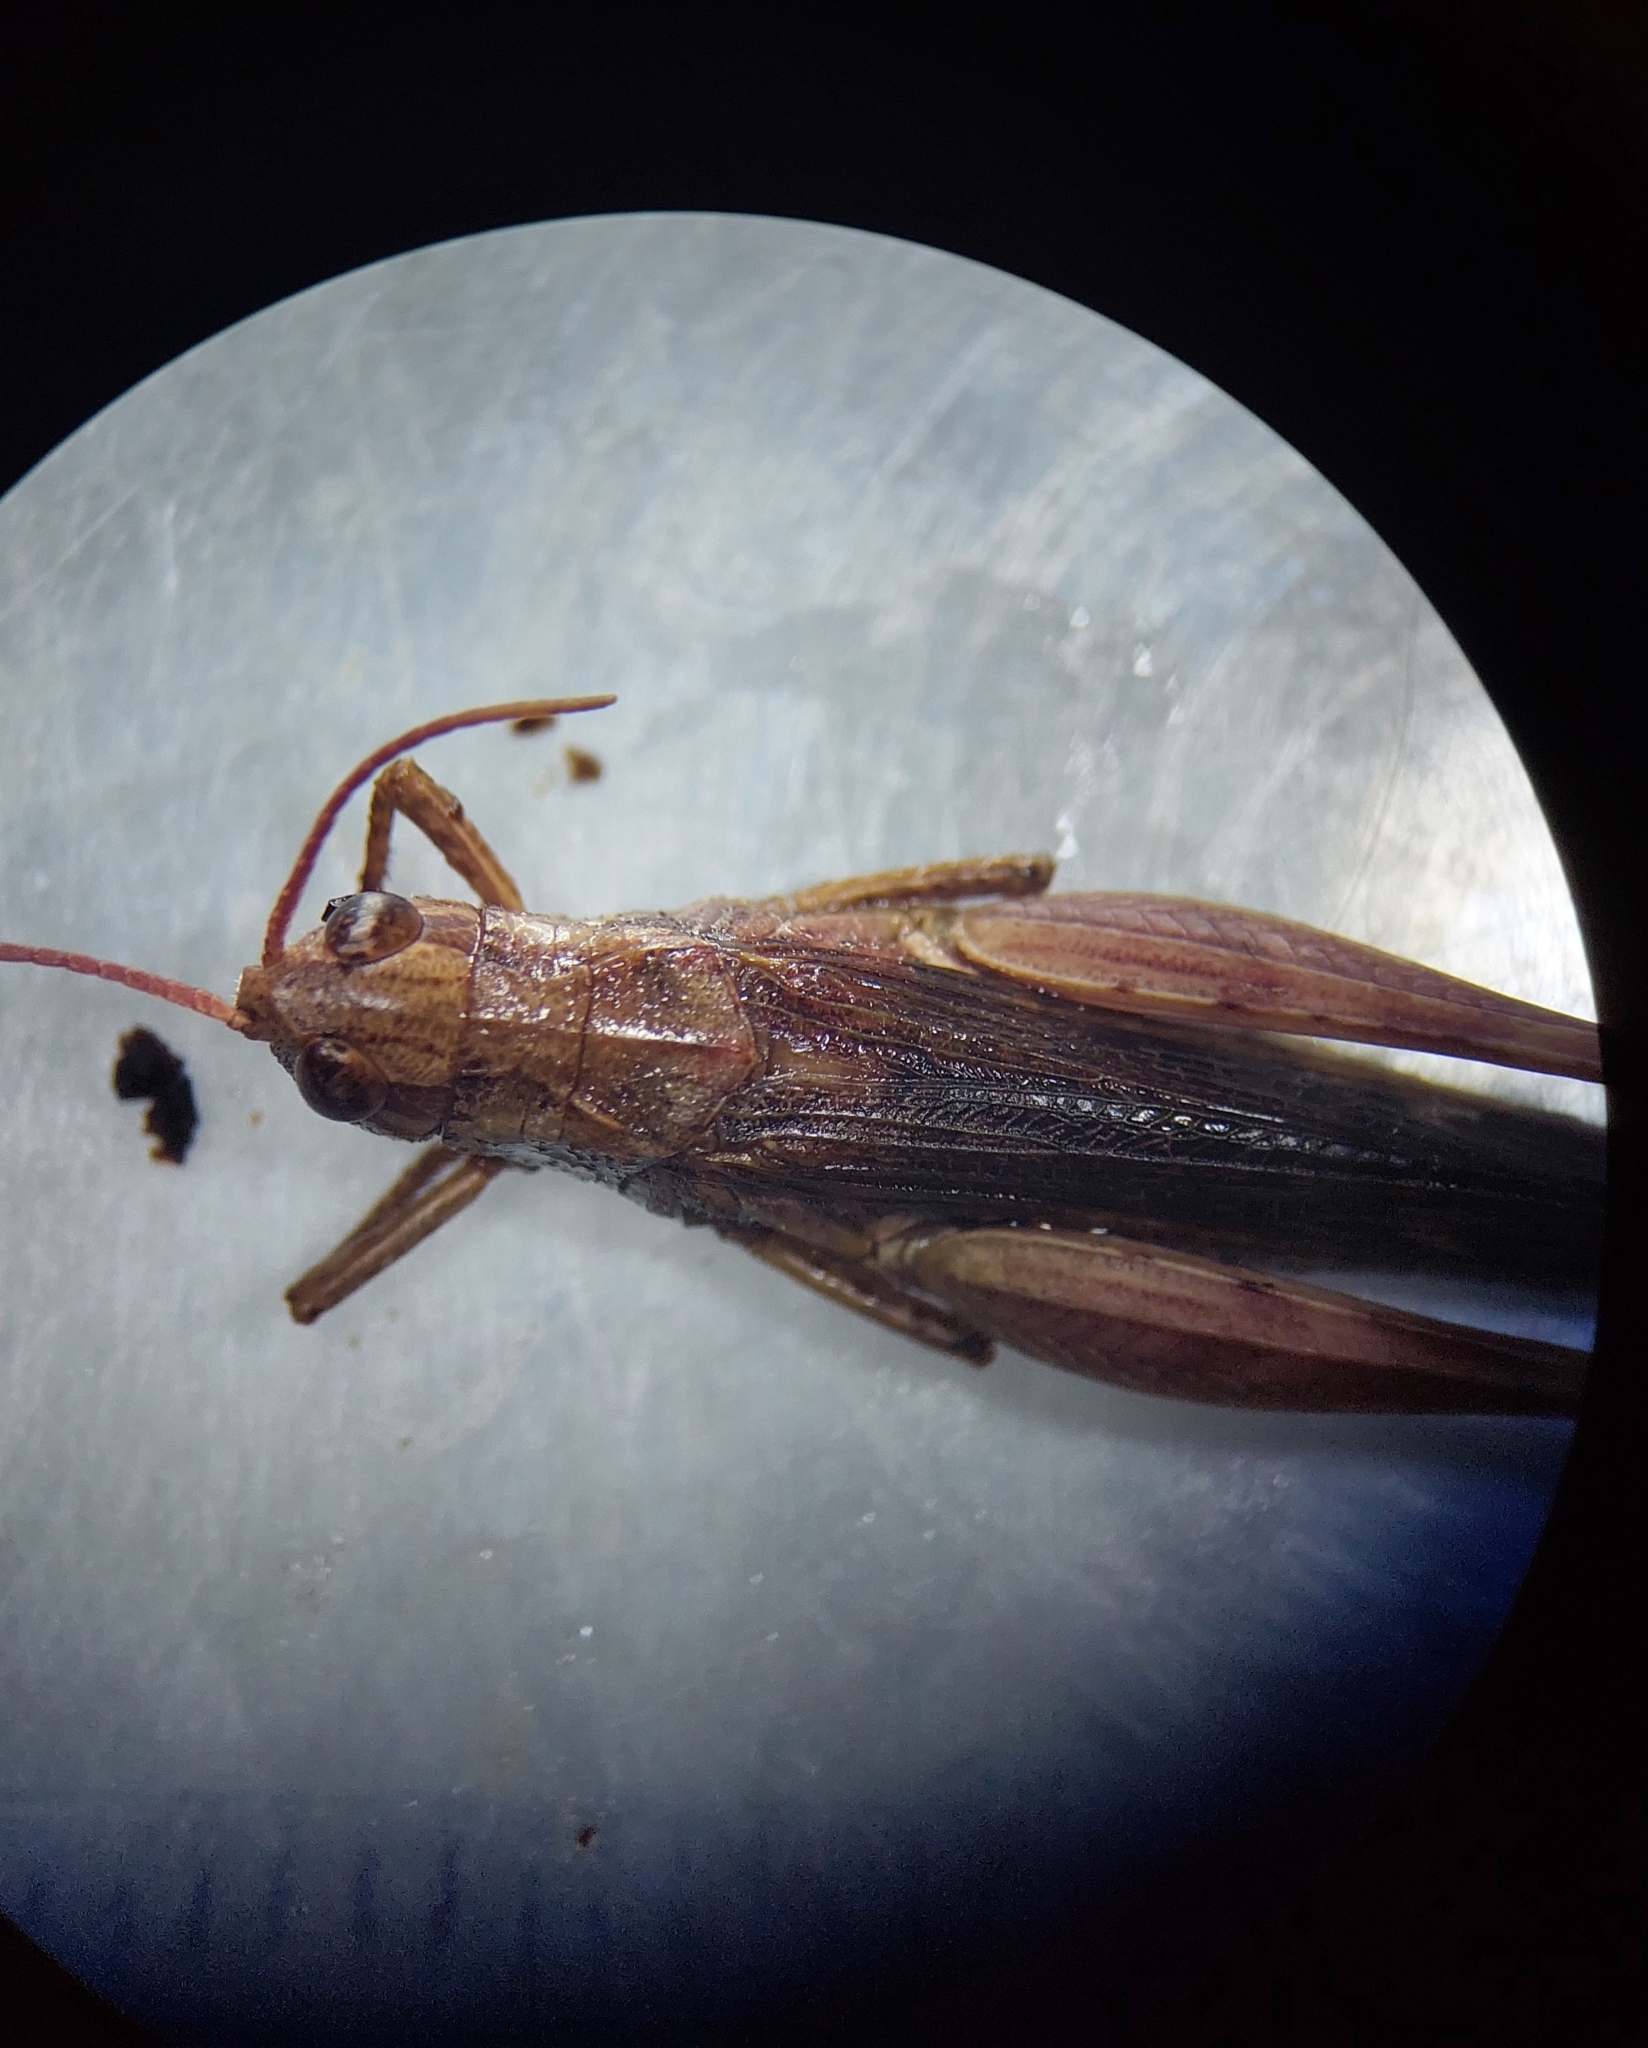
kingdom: Animalia
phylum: Arthropoda
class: Insecta
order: Orthoptera
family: Acrididae
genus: Chorthippus
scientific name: Chorthippus brunneus
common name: Field grasshopper
